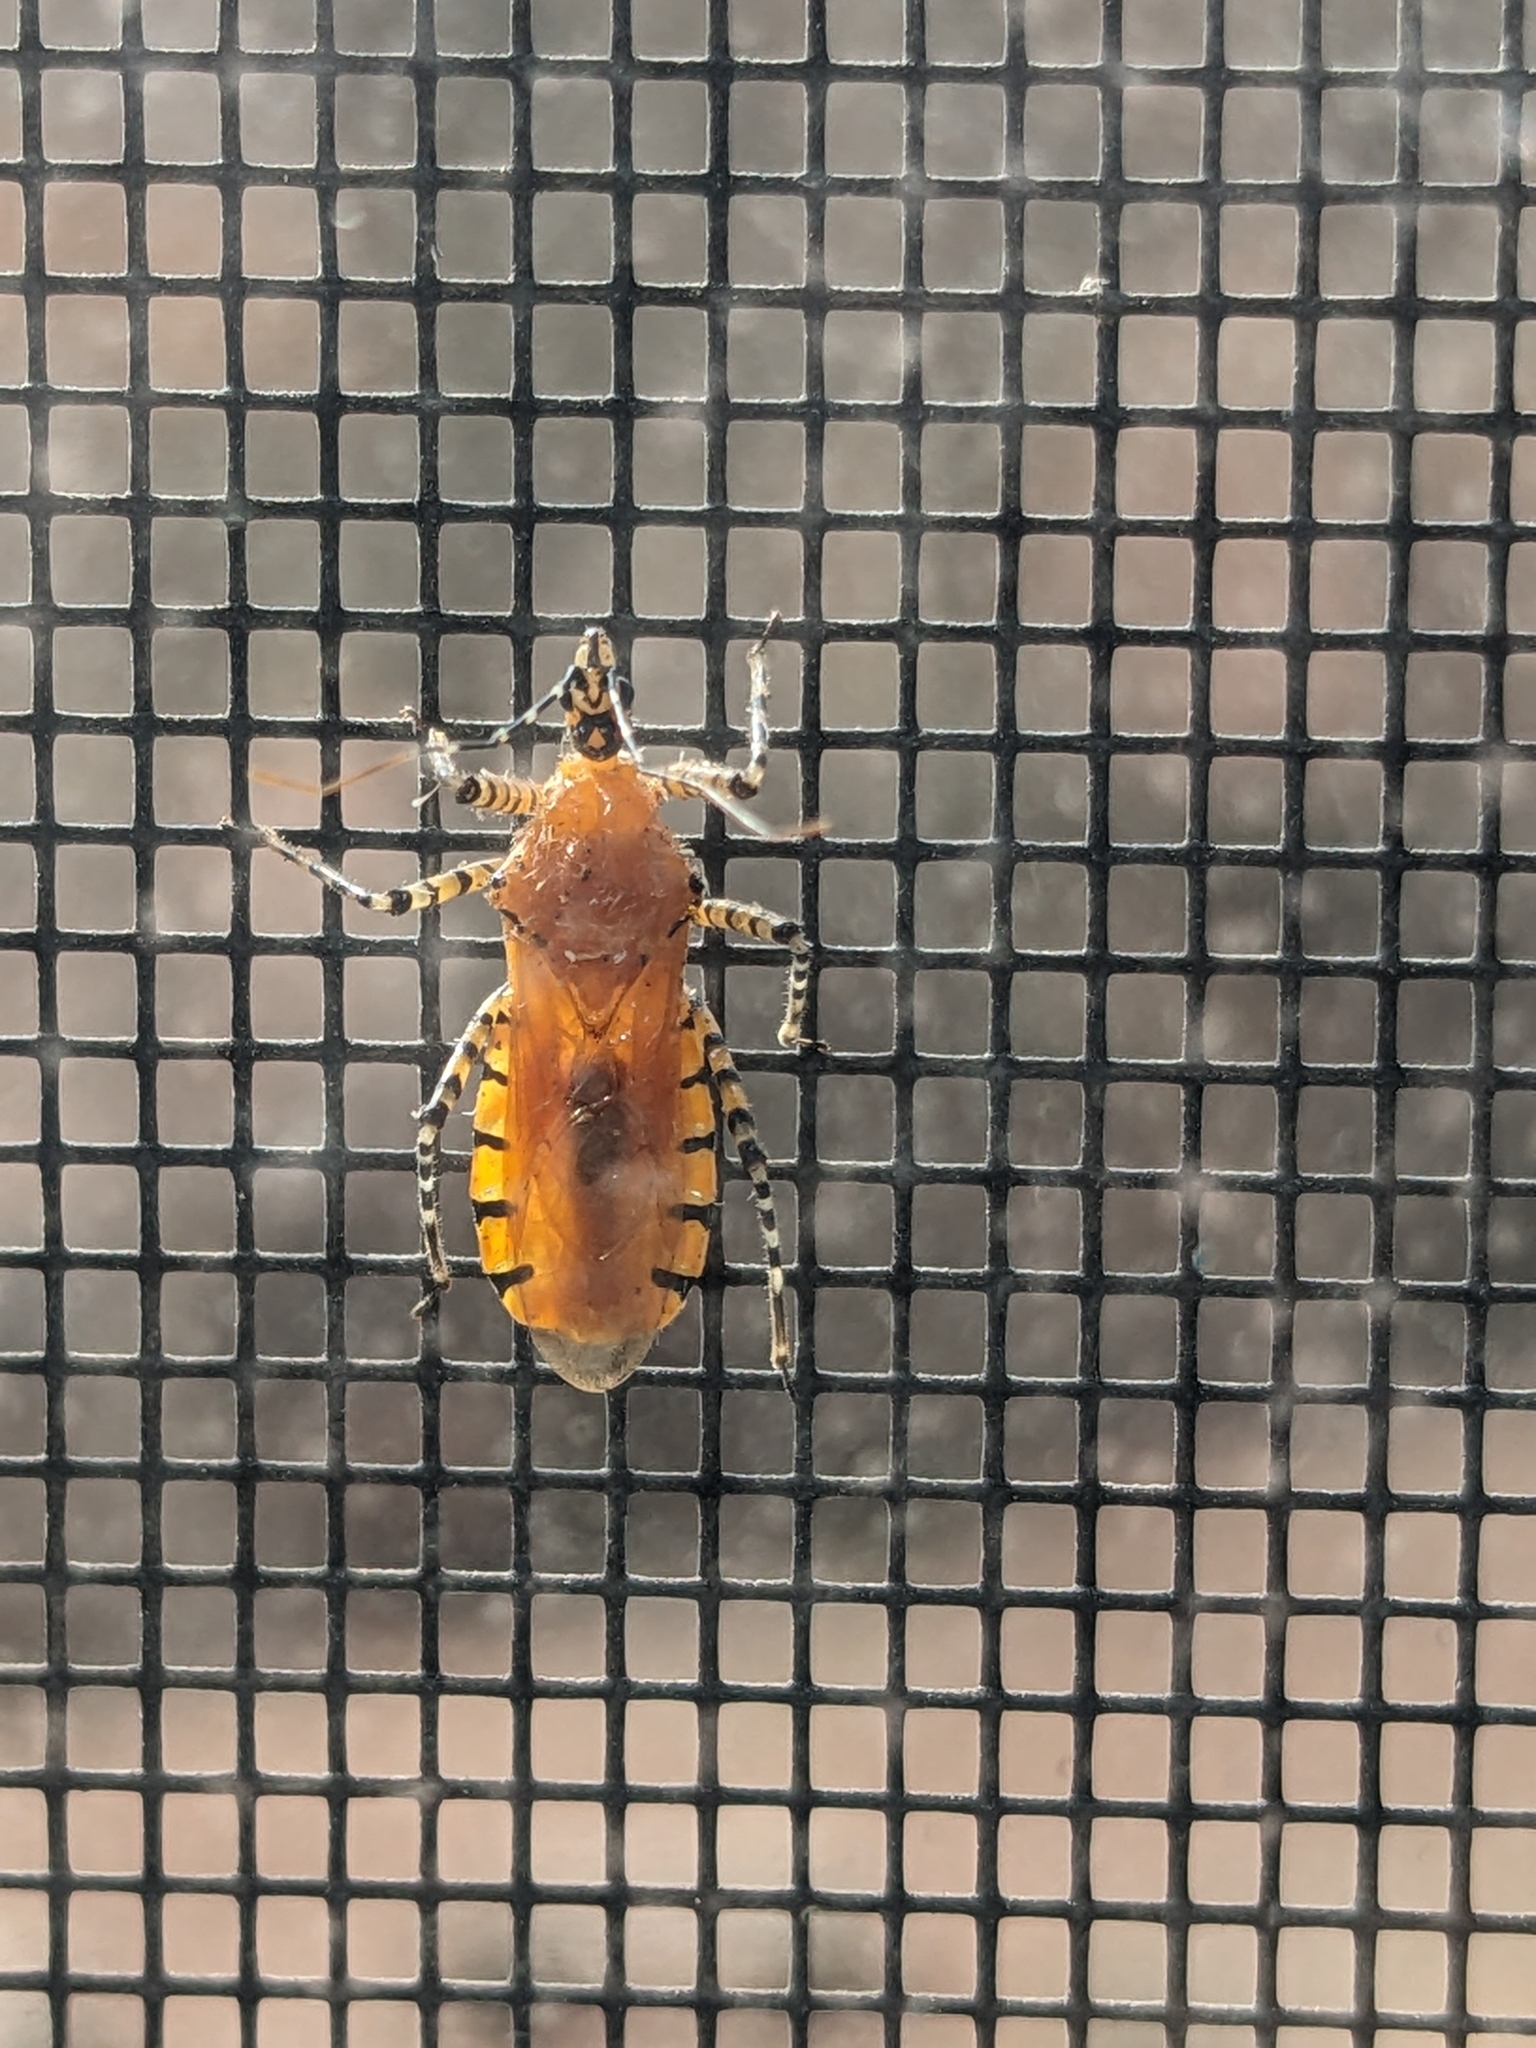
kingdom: Animalia
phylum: Arthropoda
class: Insecta
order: Hemiptera
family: Reduviidae
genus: Pselliopus
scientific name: Pselliopus barberi
